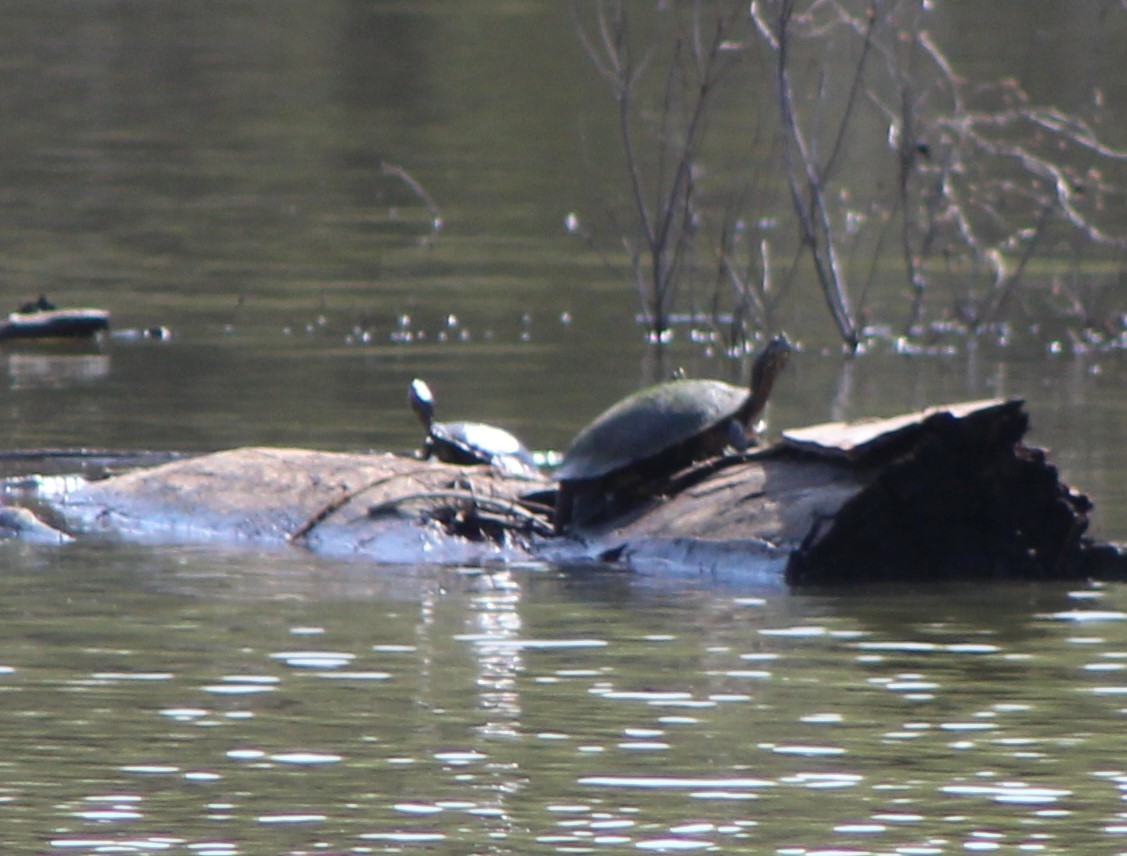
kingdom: Animalia
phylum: Chordata
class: Testudines
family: Emydidae
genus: Pseudemys
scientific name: Pseudemys concinna
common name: Eastern river cooter
